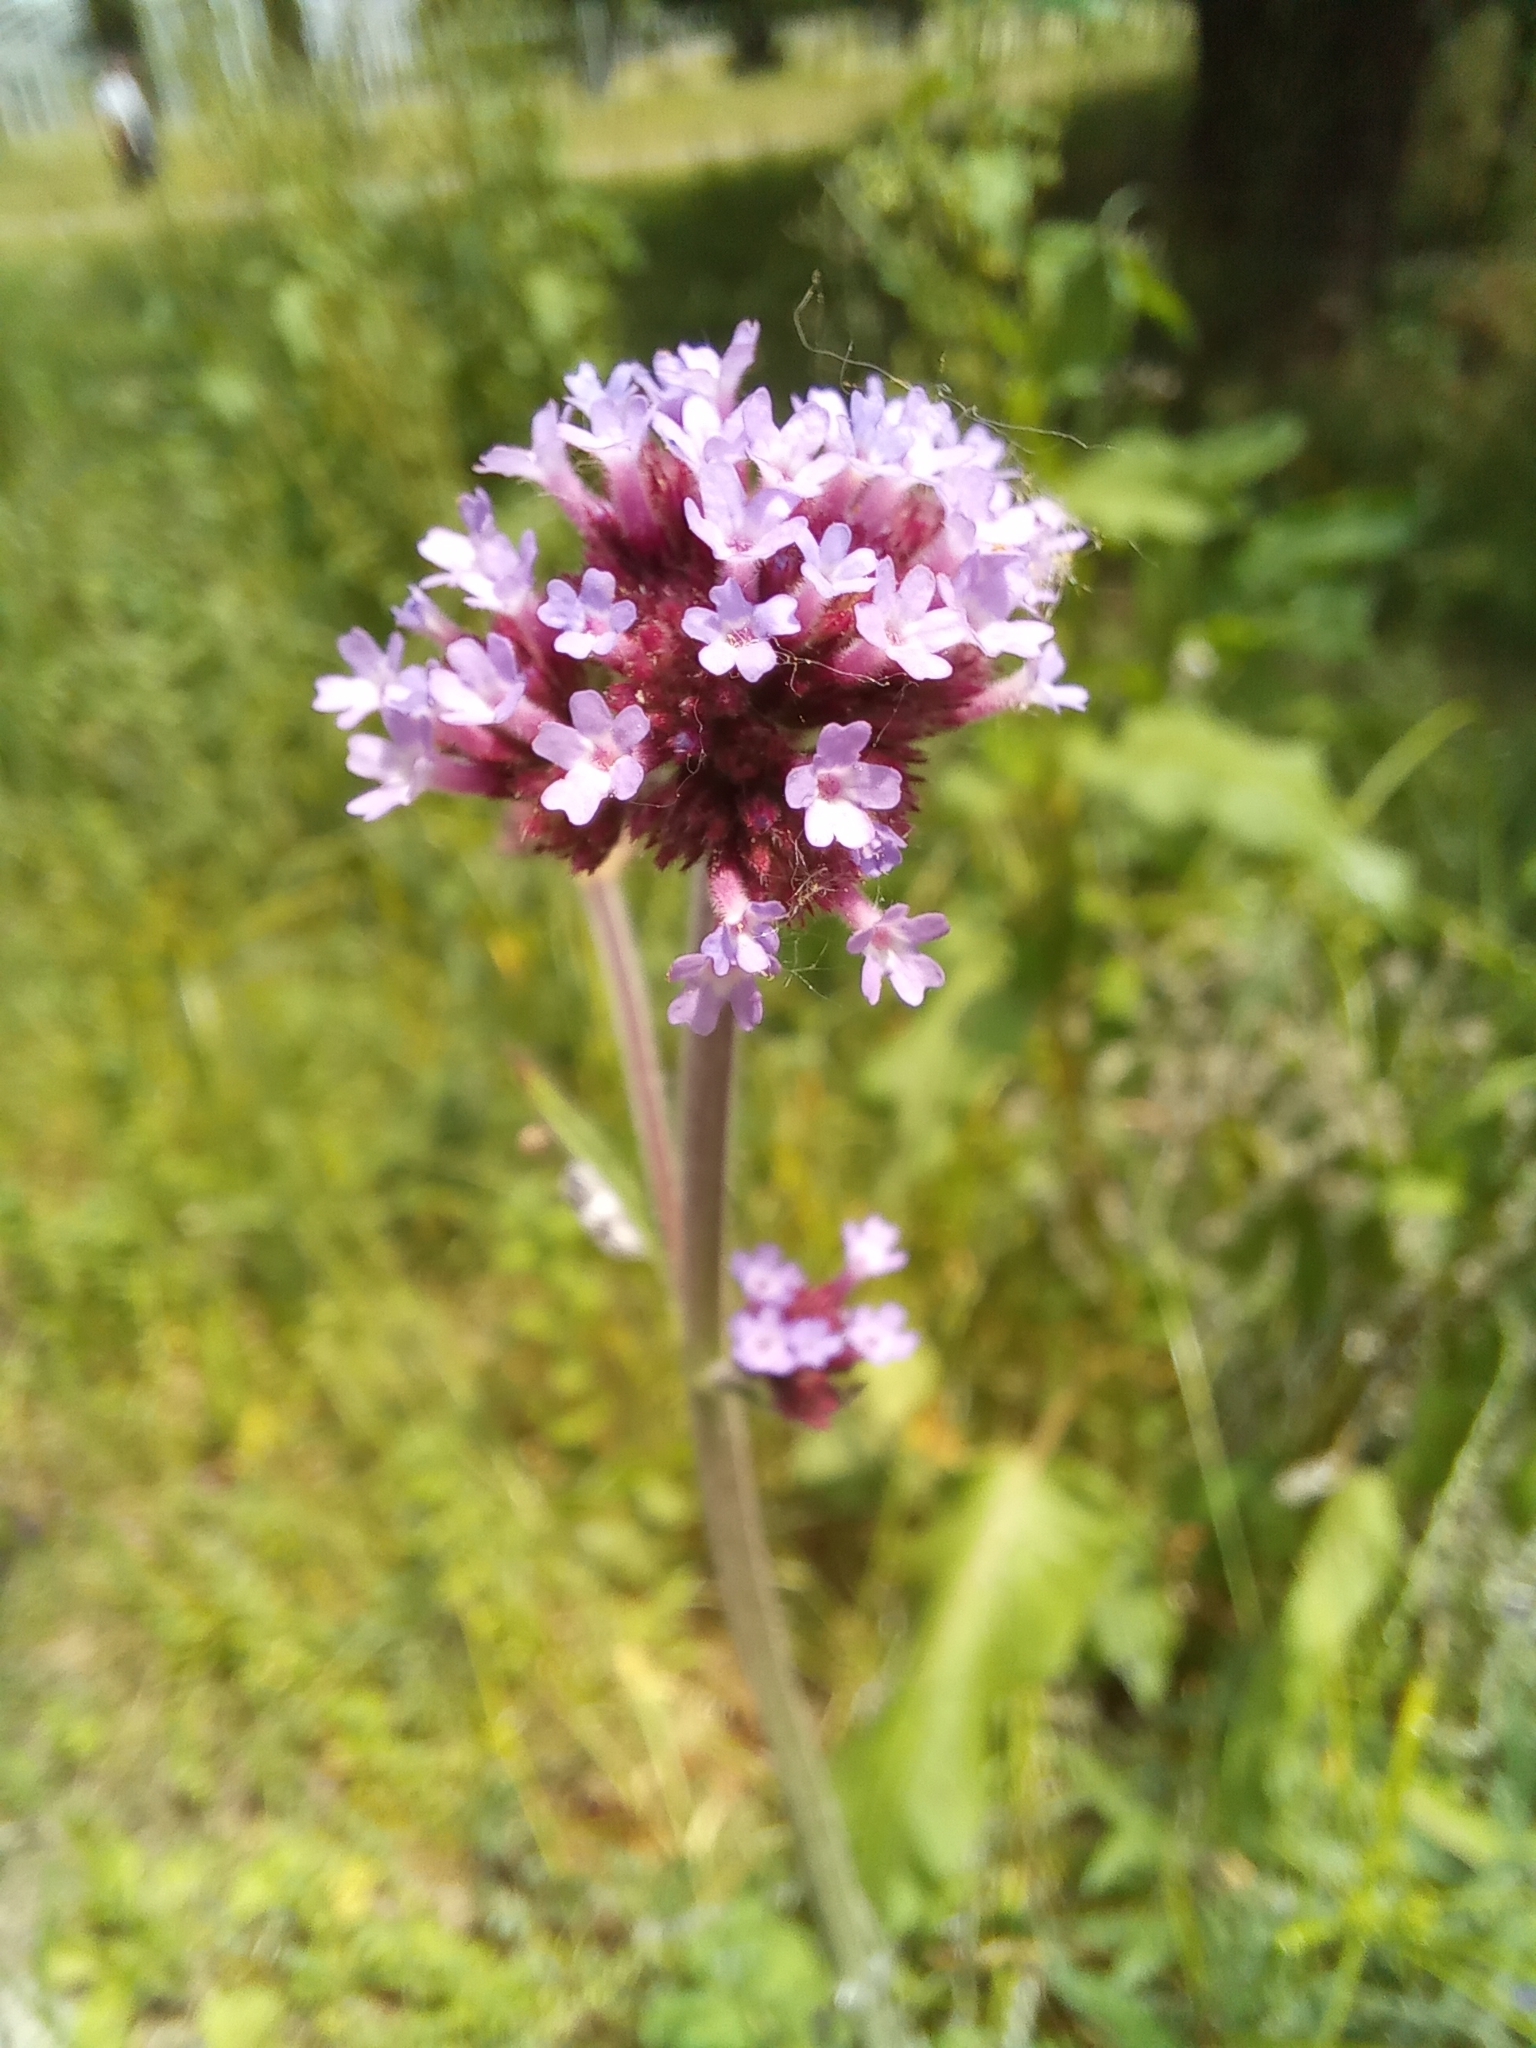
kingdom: Plantae
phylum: Tracheophyta
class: Magnoliopsida
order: Lamiales
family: Verbenaceae
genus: Verbena
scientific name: Verbena bonariensis
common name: Purpletop vervain
